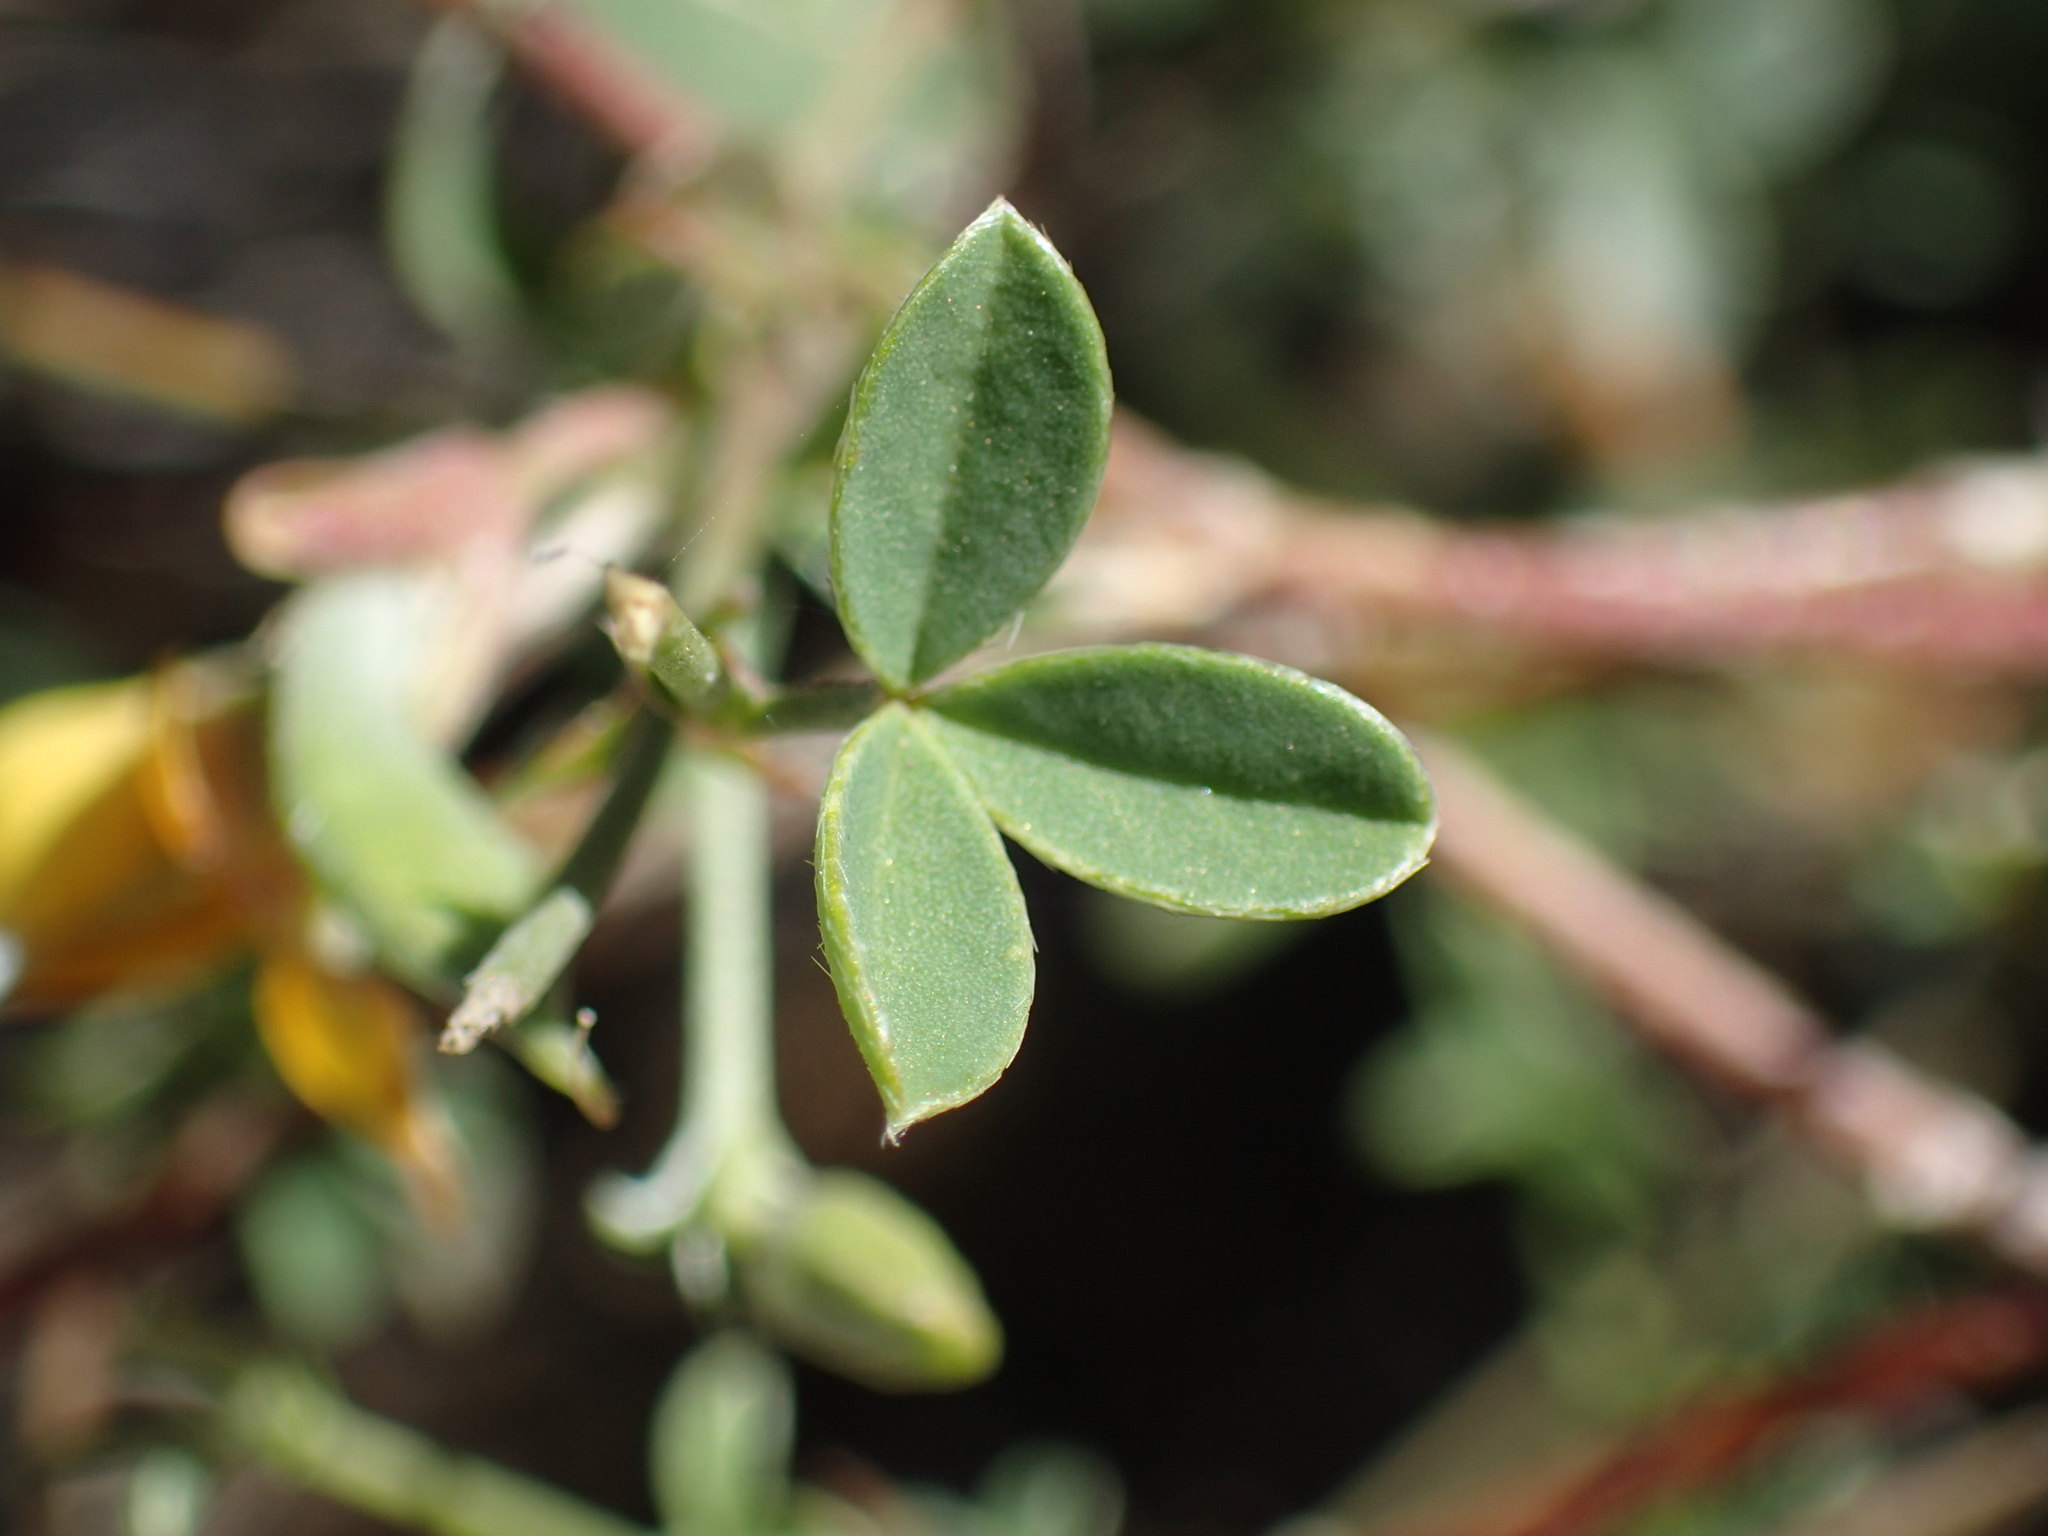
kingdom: Plantae
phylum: Tracheophyta
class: Magnoliopsida
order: Fabales
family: Fabaceae
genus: Argyrolobium
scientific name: Argyrolobium argenteum
